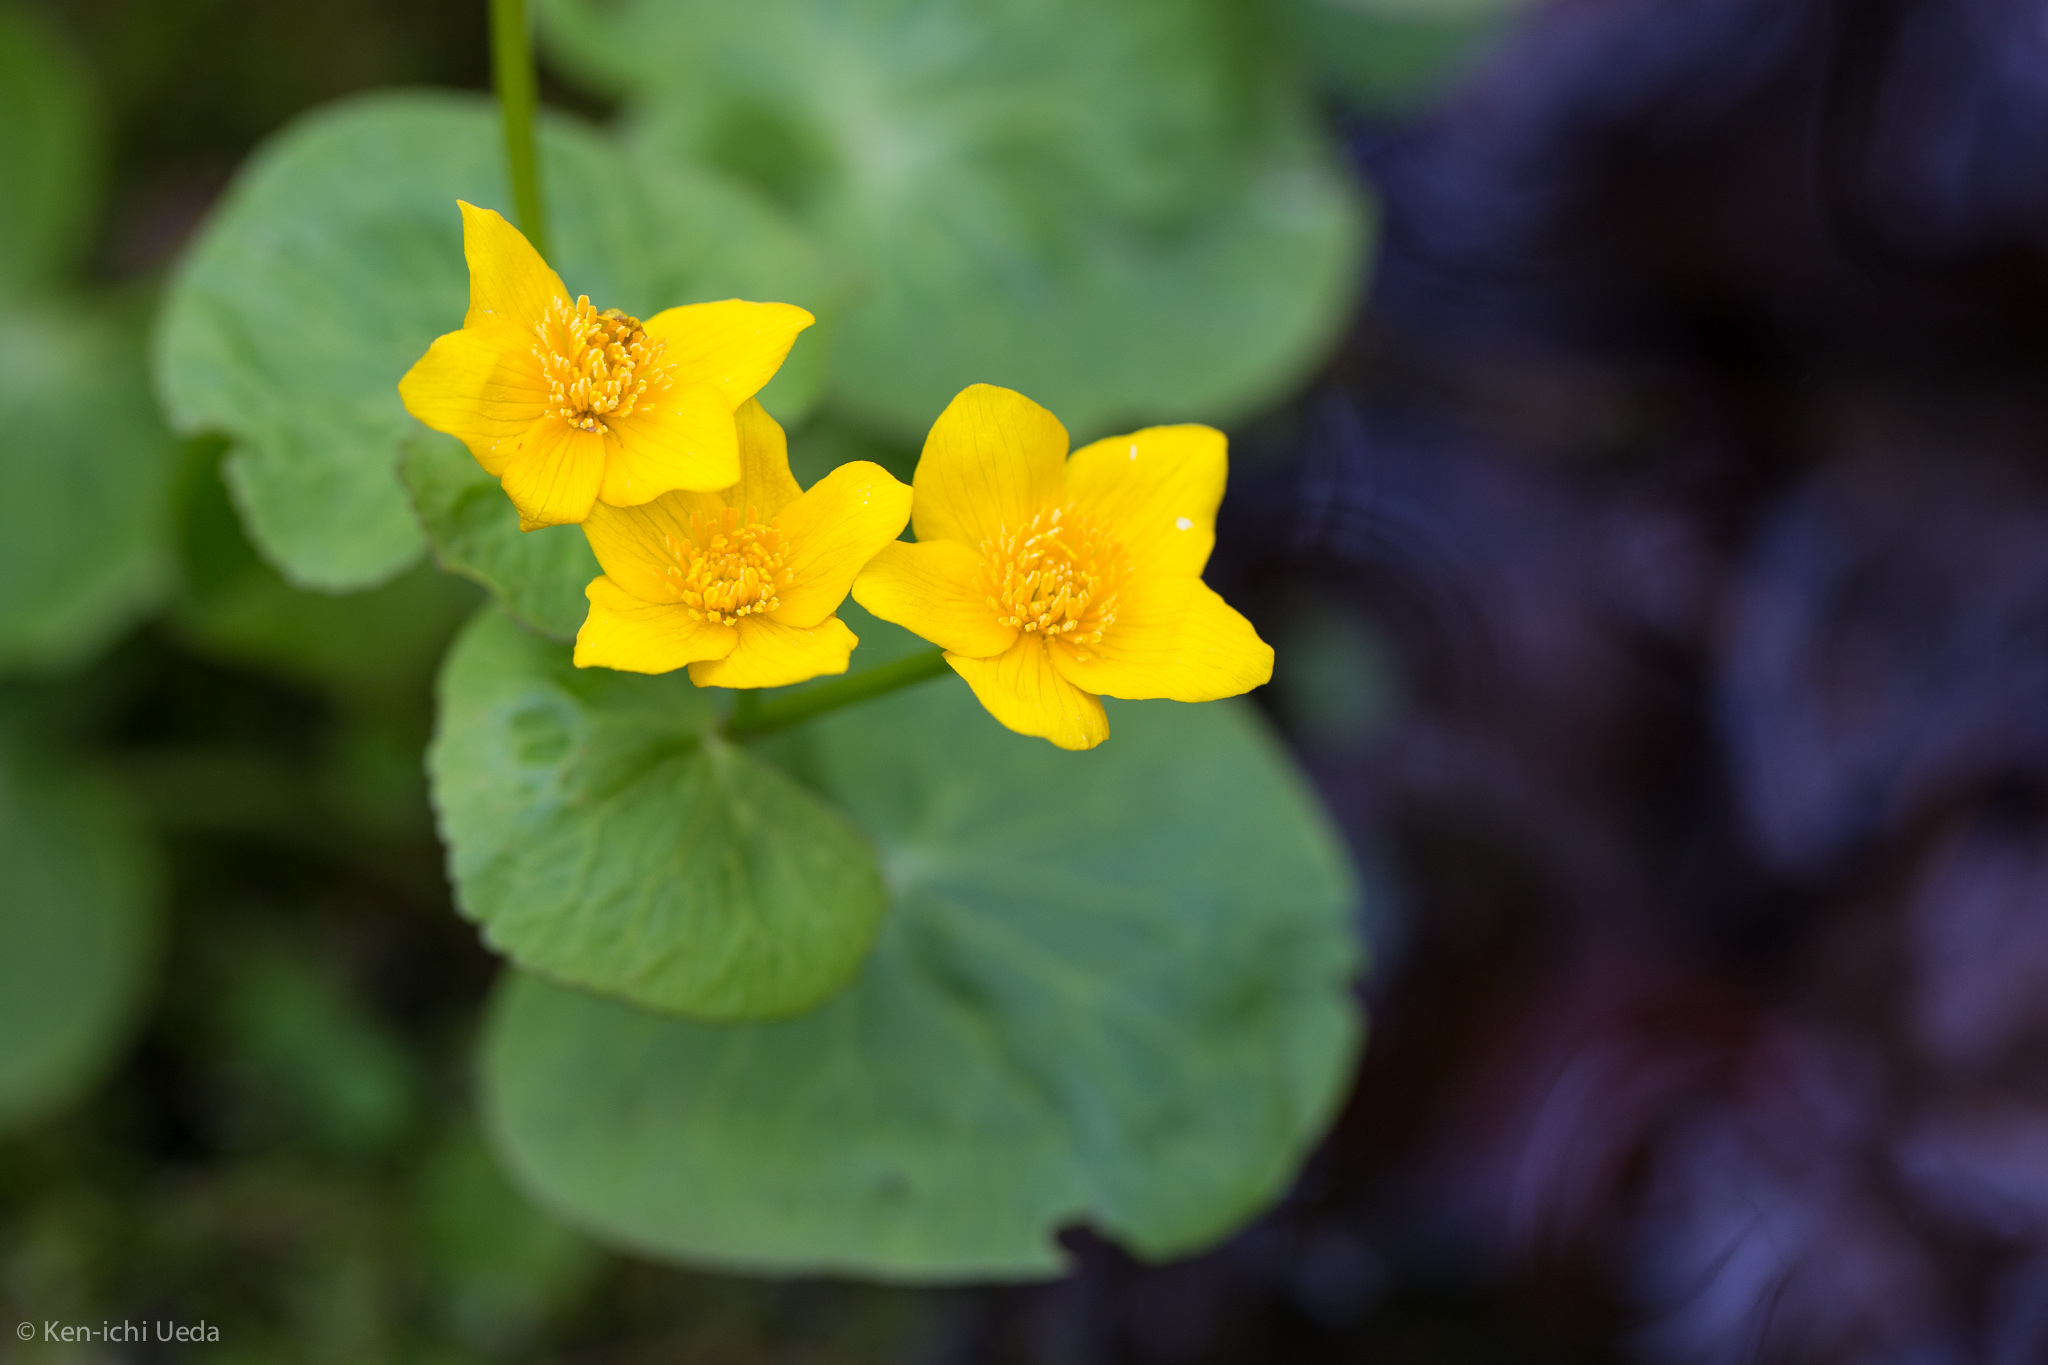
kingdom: Plantae
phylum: Tracheophyta
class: Magnoliopsida
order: Ranunculales
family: Ranunculaceae
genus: Caltha
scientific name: Caltha palustris
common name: Marsh marigold
